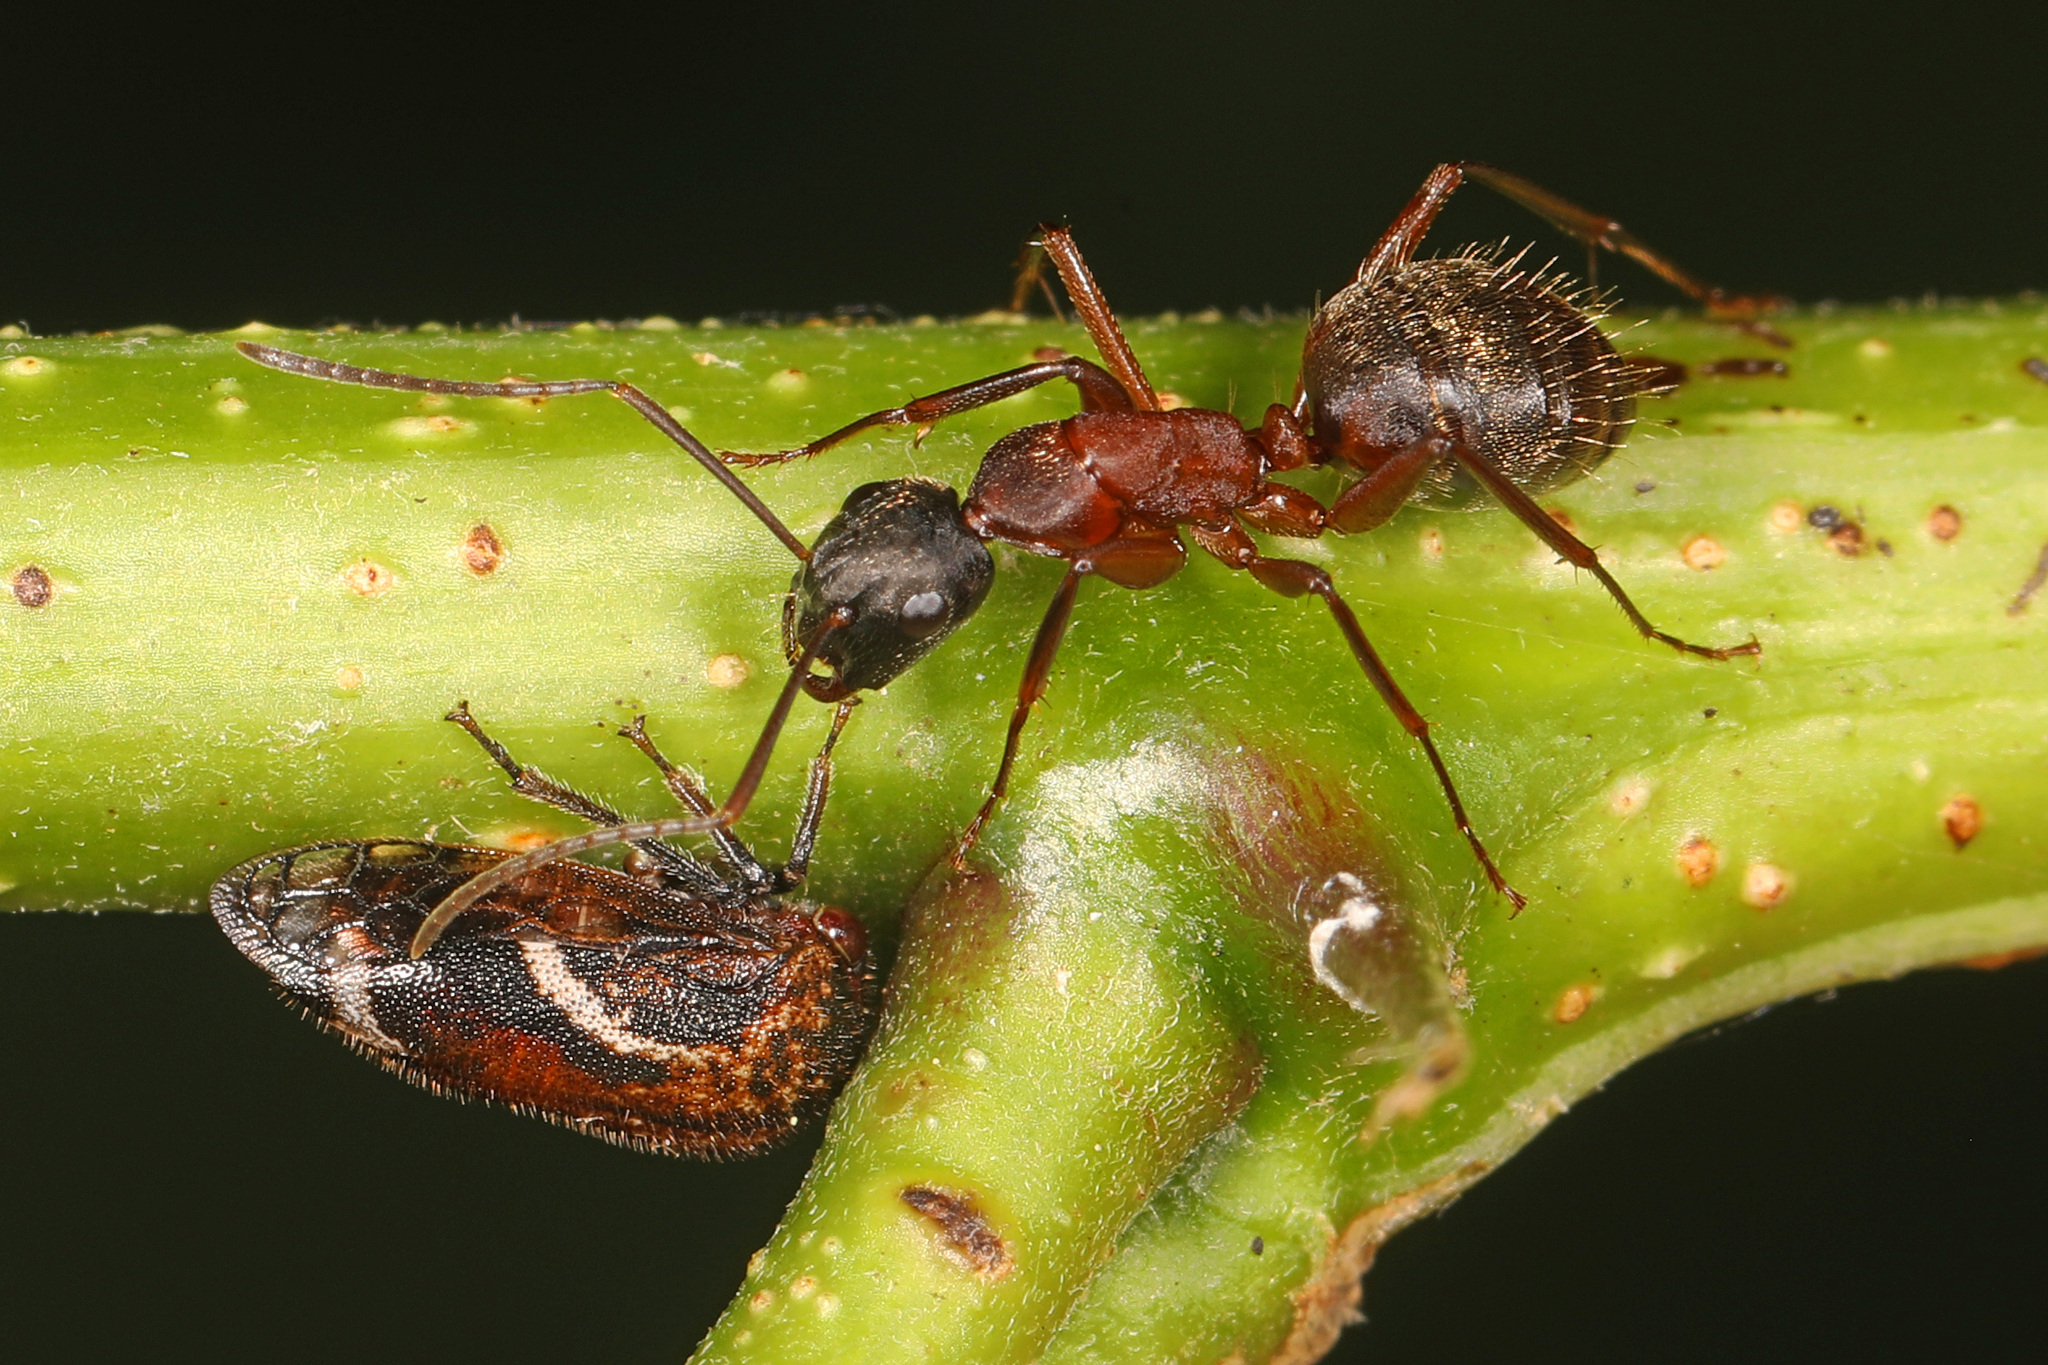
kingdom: Animalia
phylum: Arthropoda
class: Insecta
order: Hymenoptera
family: Formicidae
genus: Camponotus
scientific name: Camponotus chromaiodes
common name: Red carpenter ant
